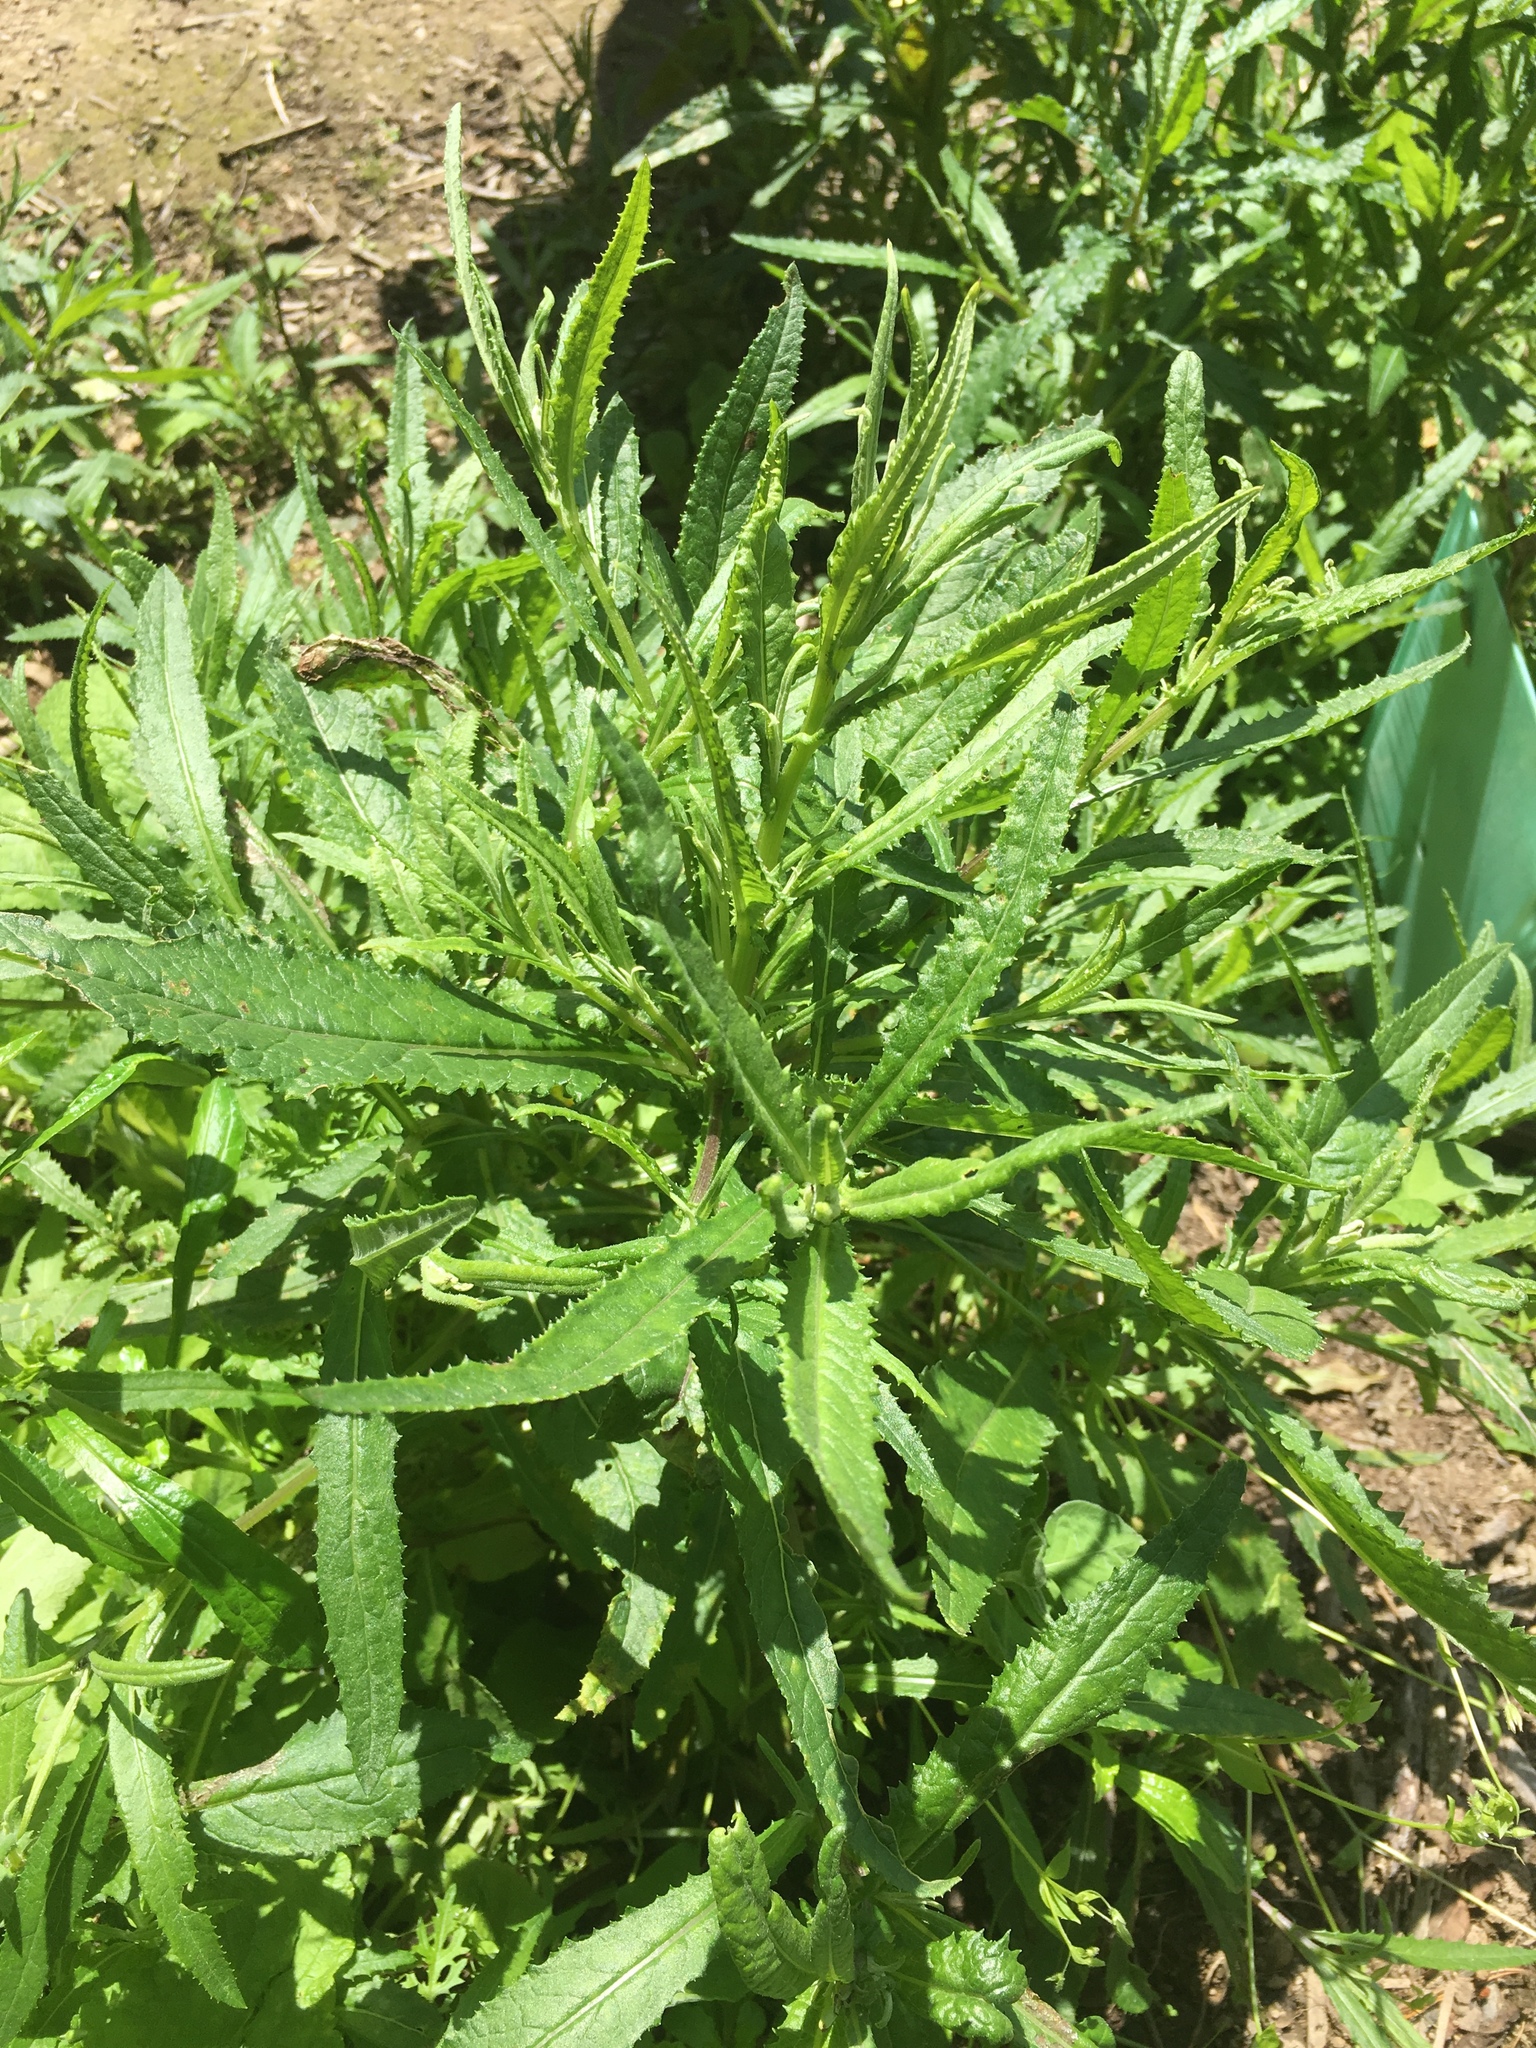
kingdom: Plantae
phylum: Tracheophyta
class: Magnoliopsida
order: Asterales
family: Asteraceae
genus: Senecio
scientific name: Senecio minimus
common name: Toothed fireweed
